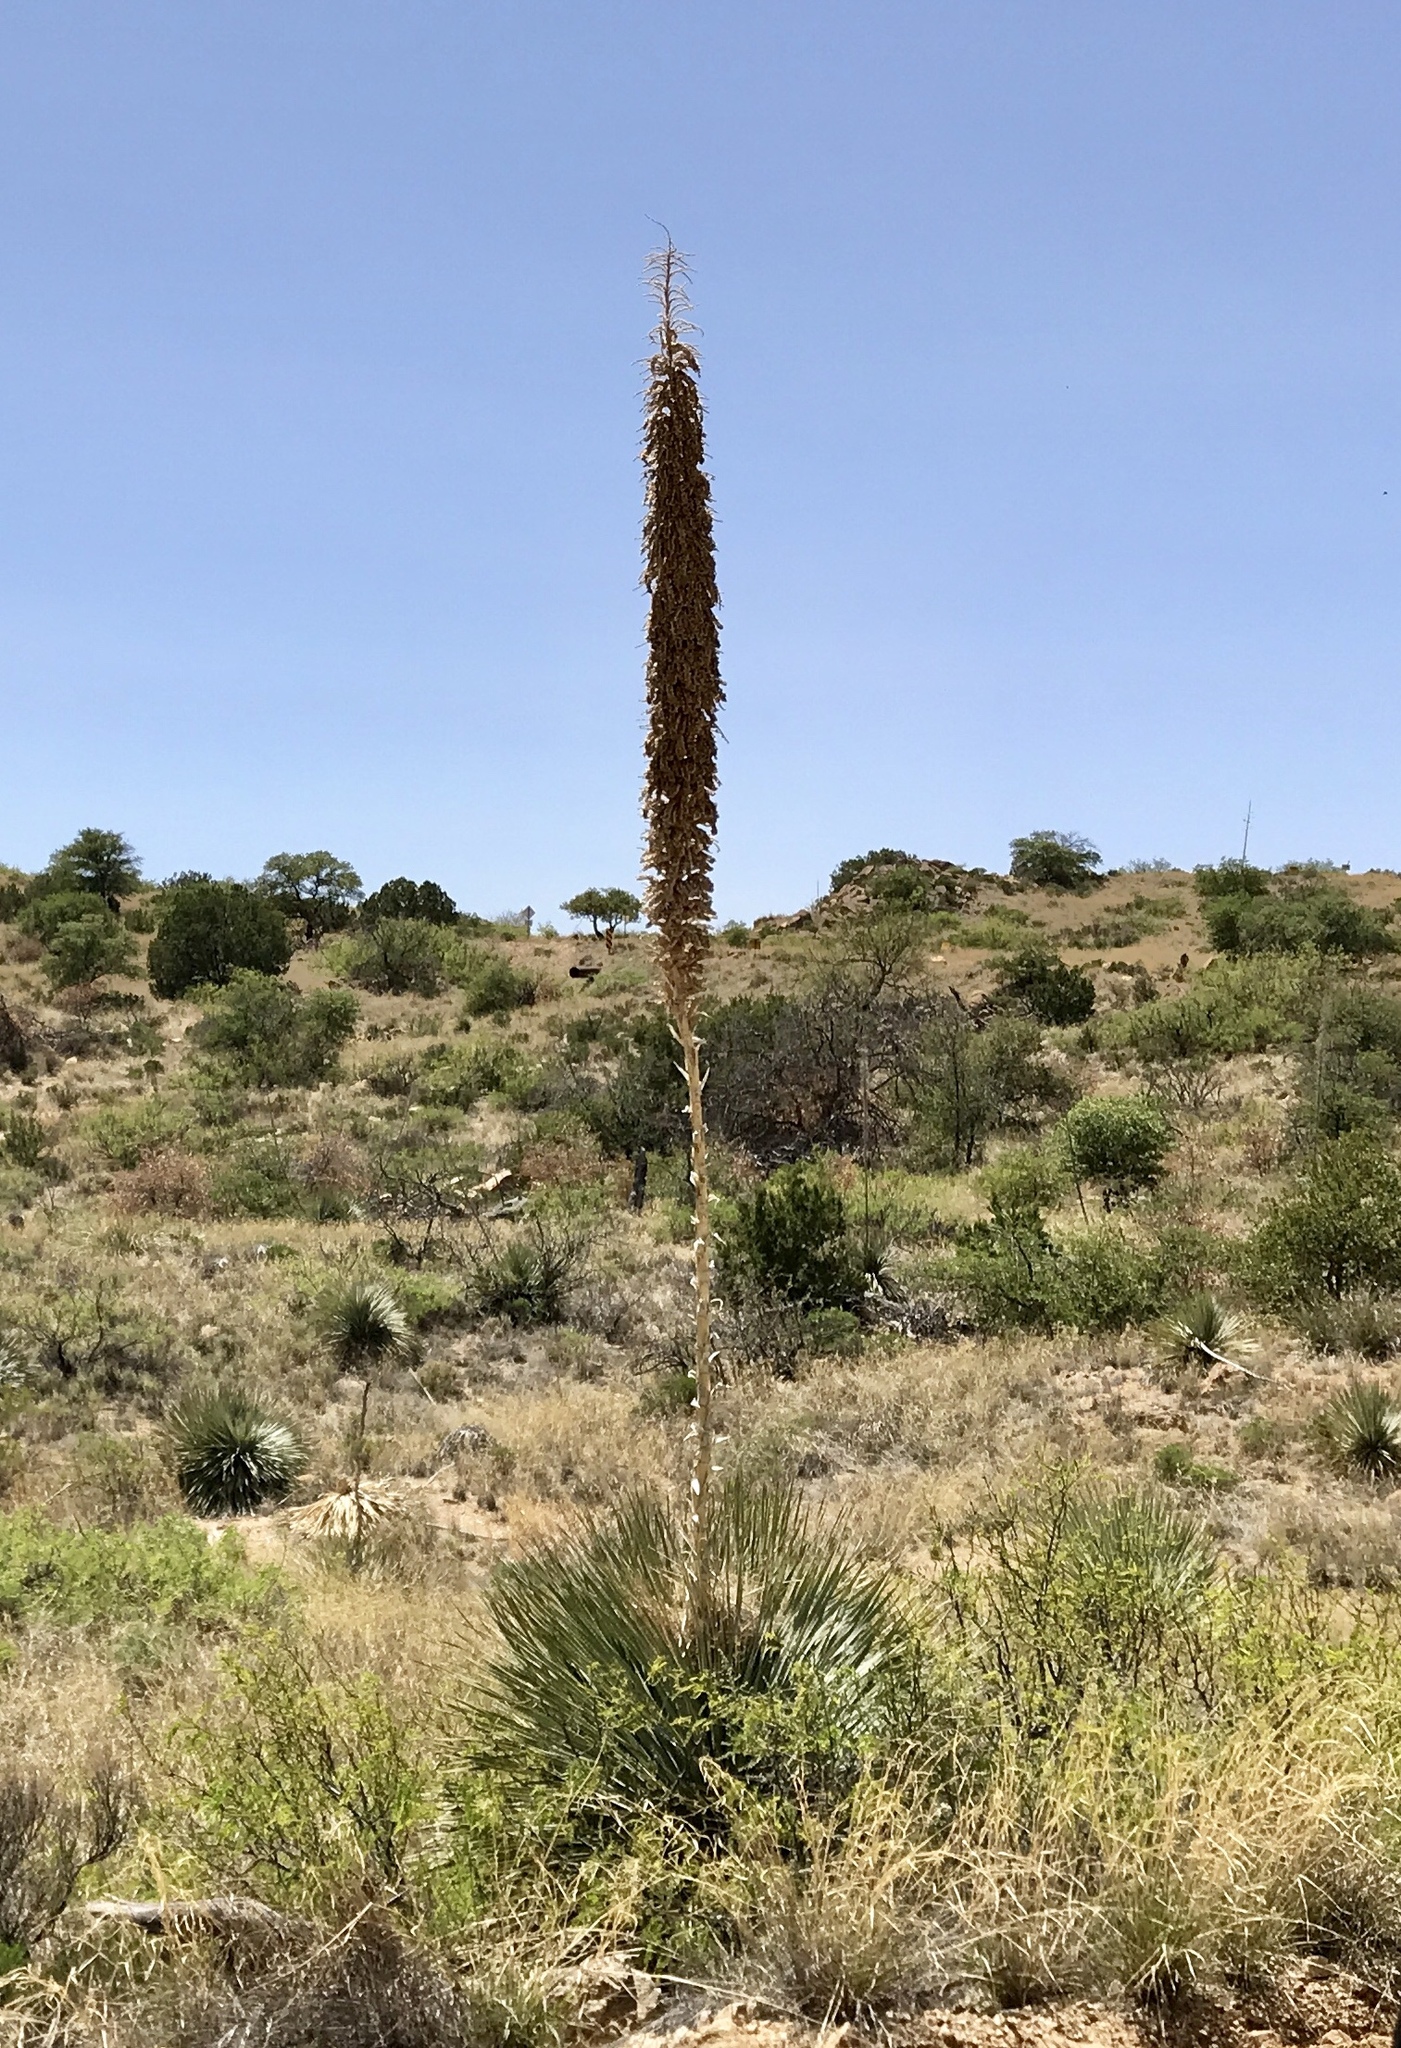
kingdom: Plantae
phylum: Tracheophyta
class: Liliopsida
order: Asparagales
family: Asparagaceae
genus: Dasylirion
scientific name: Dasylirion wheeleri
